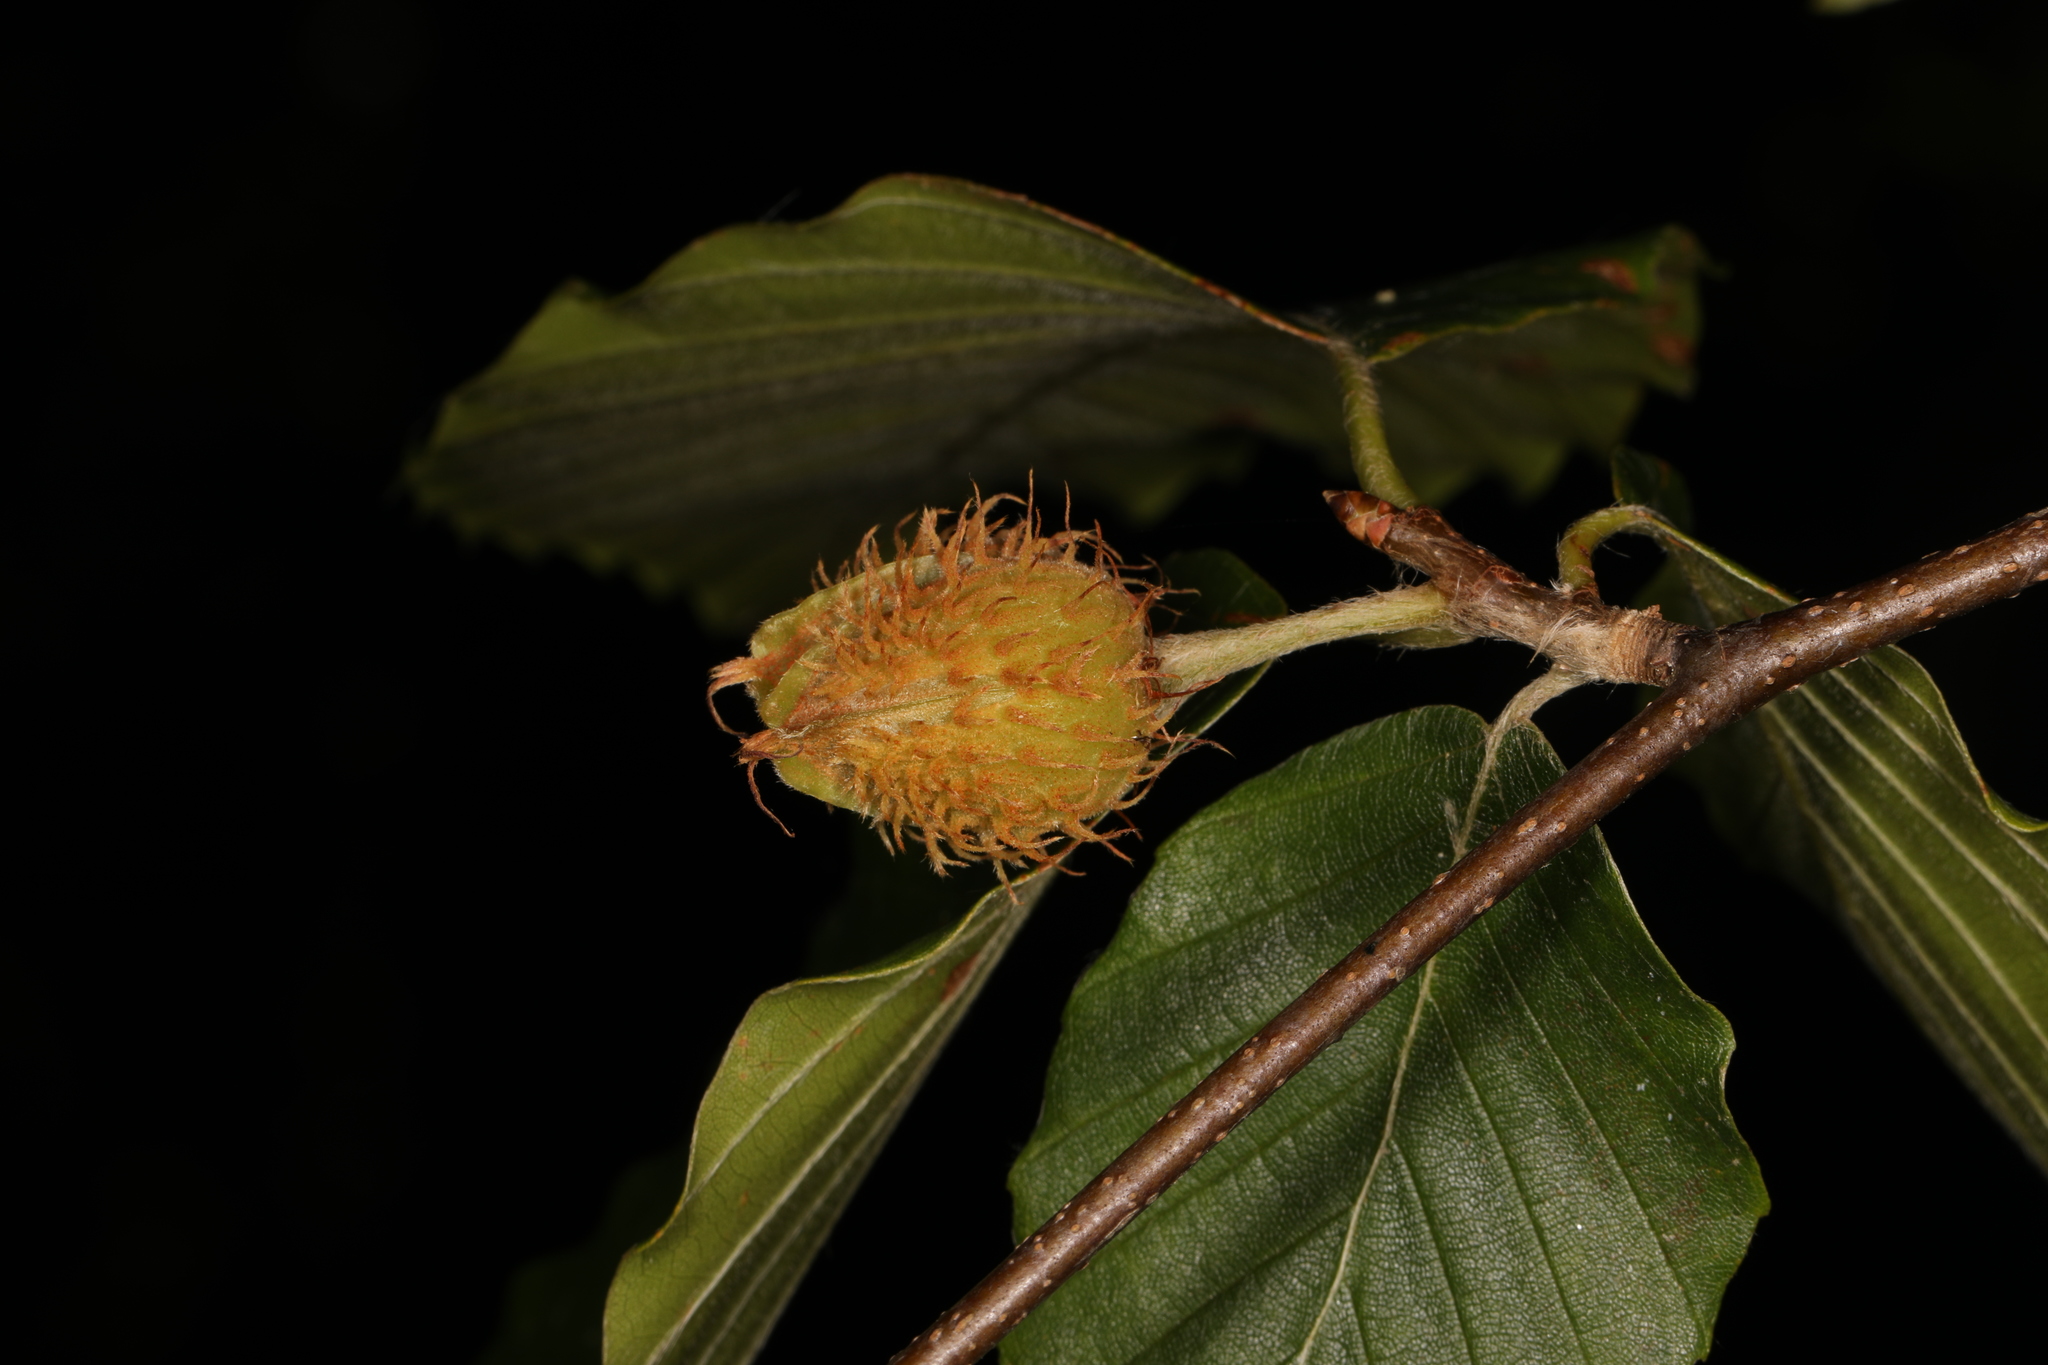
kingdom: Plantae
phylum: Tracheophyta
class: Magnoliopsida
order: Fagales
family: Fagaceae
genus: Fagus
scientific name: Fagus grandifolia
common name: American beech
